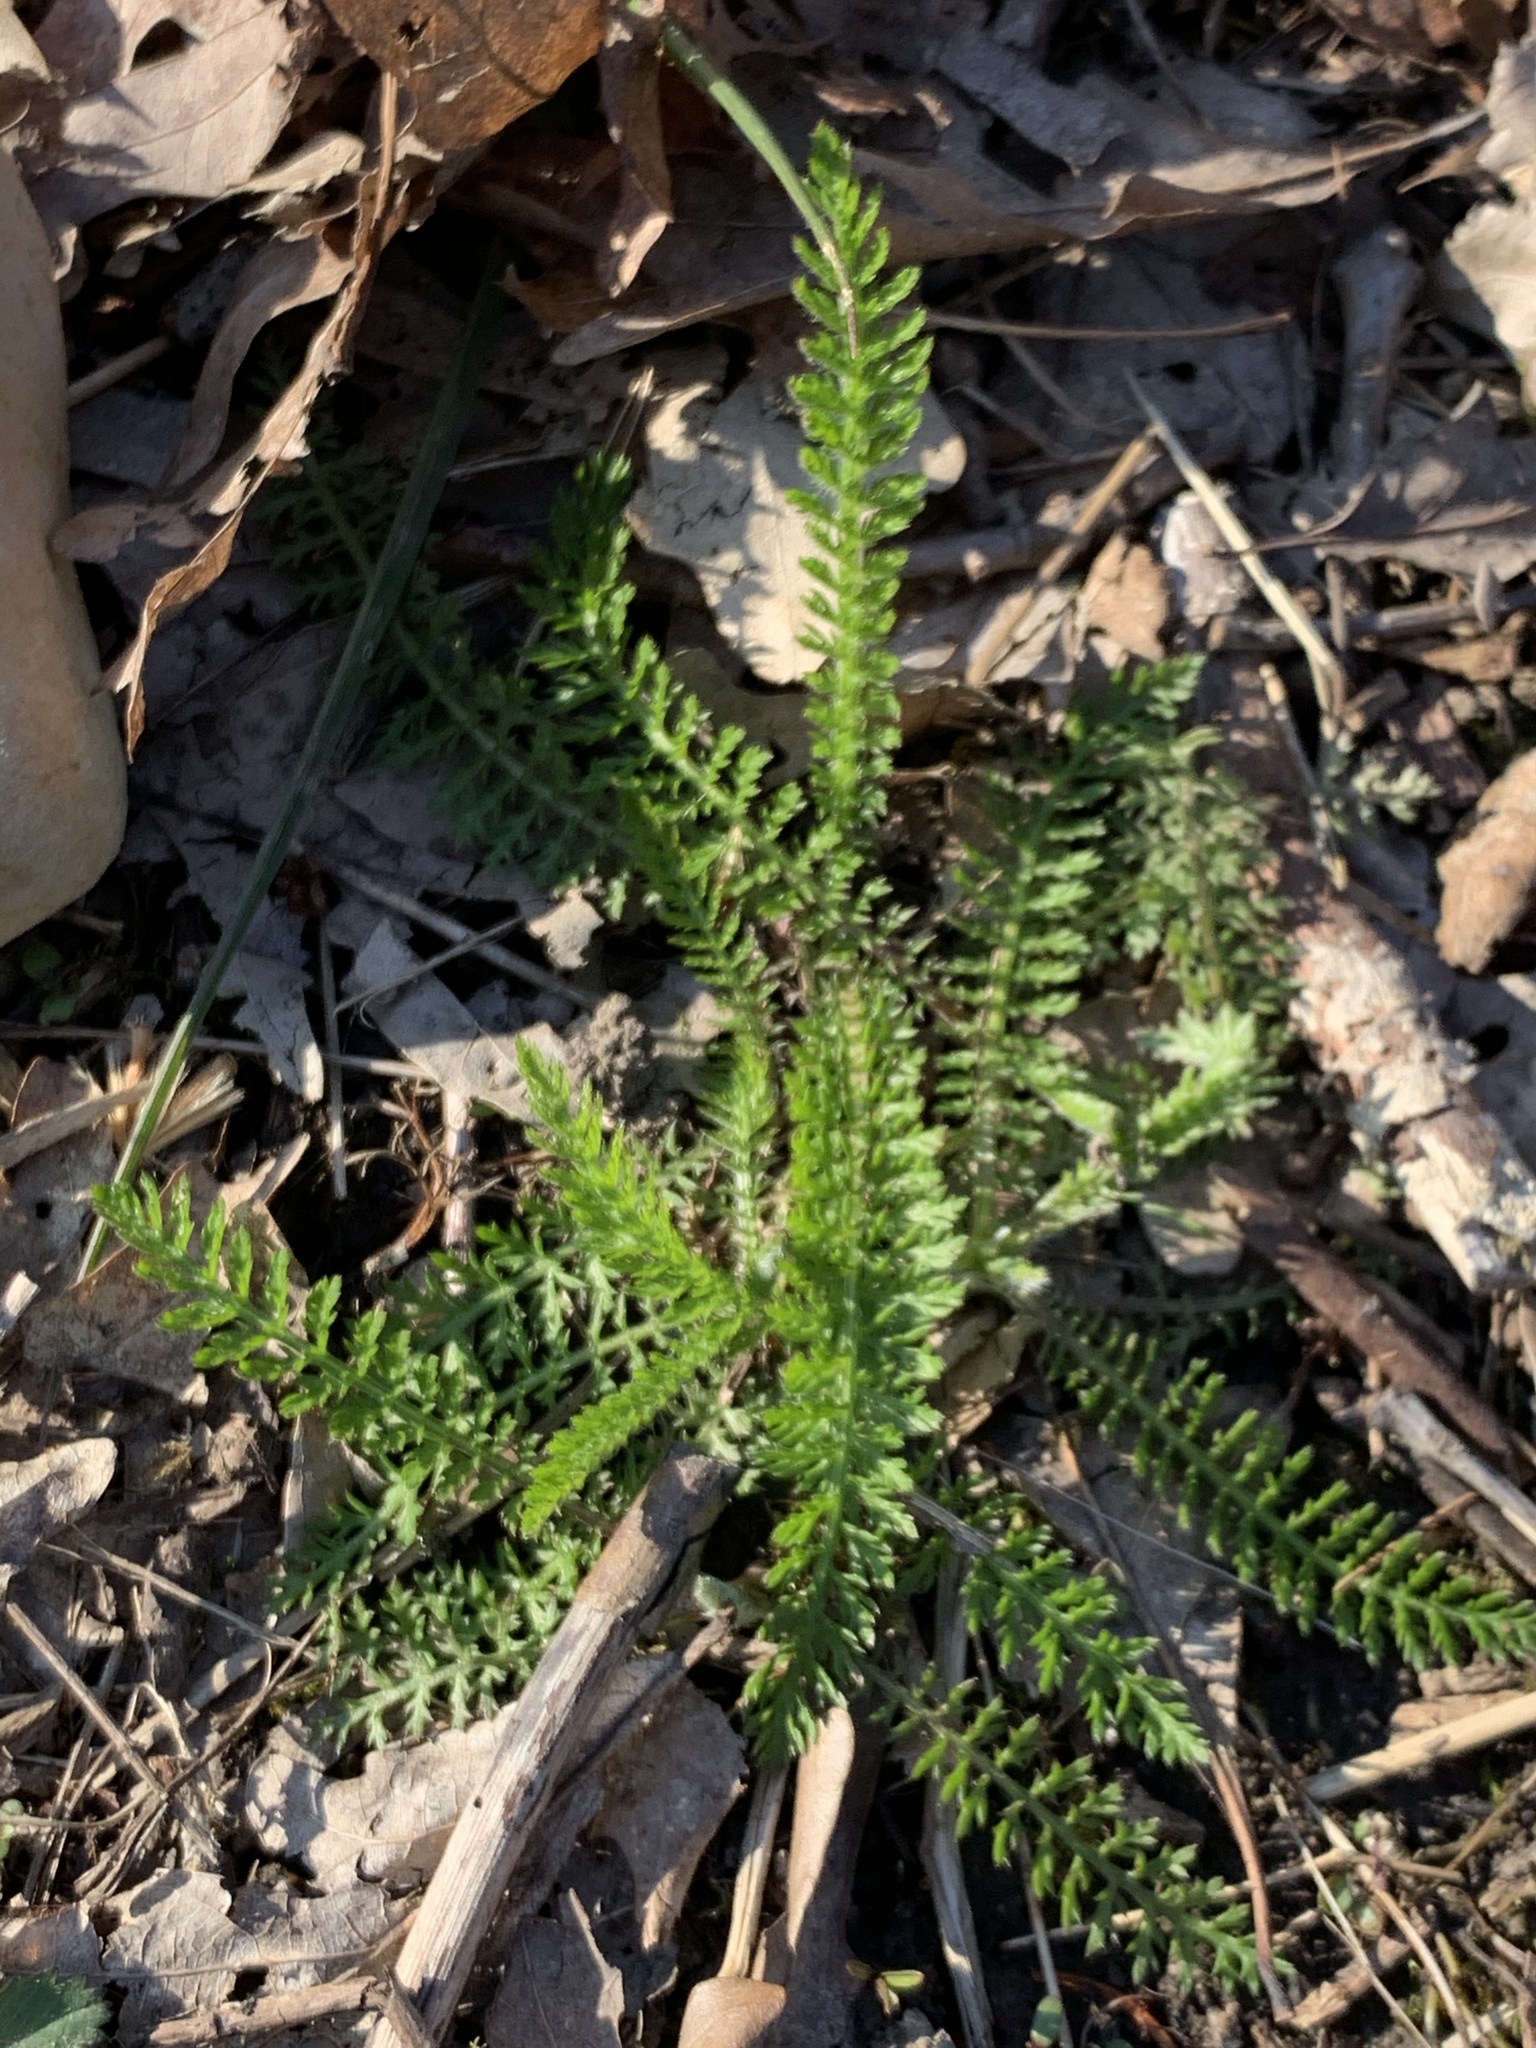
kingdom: Plantae
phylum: Tracheophyta
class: Magnoliopsida
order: Asterales
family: Asteraceae
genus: Achillea
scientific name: Achillea millefolium
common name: Yarrow
